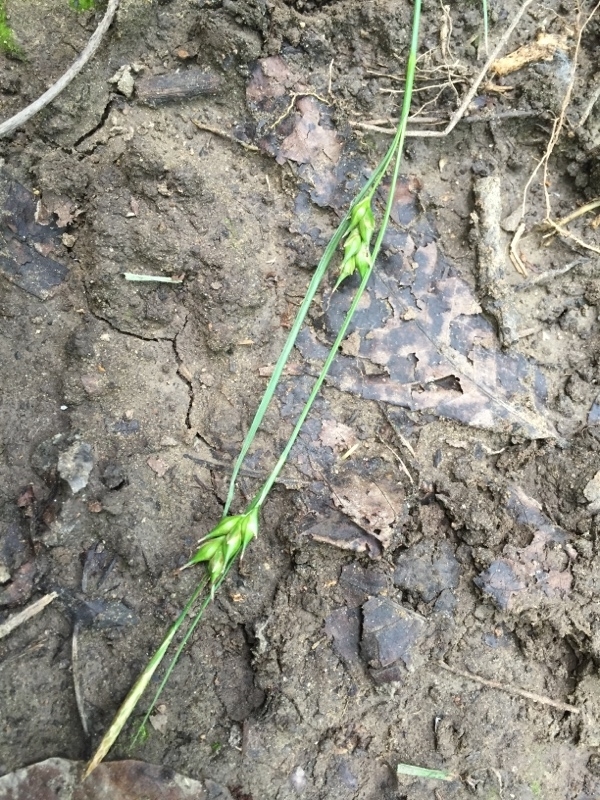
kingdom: Plantae
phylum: Tracheophyta
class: Liliopsida
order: Poales
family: Cyperaceae
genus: Carex
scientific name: Carex depauperata
